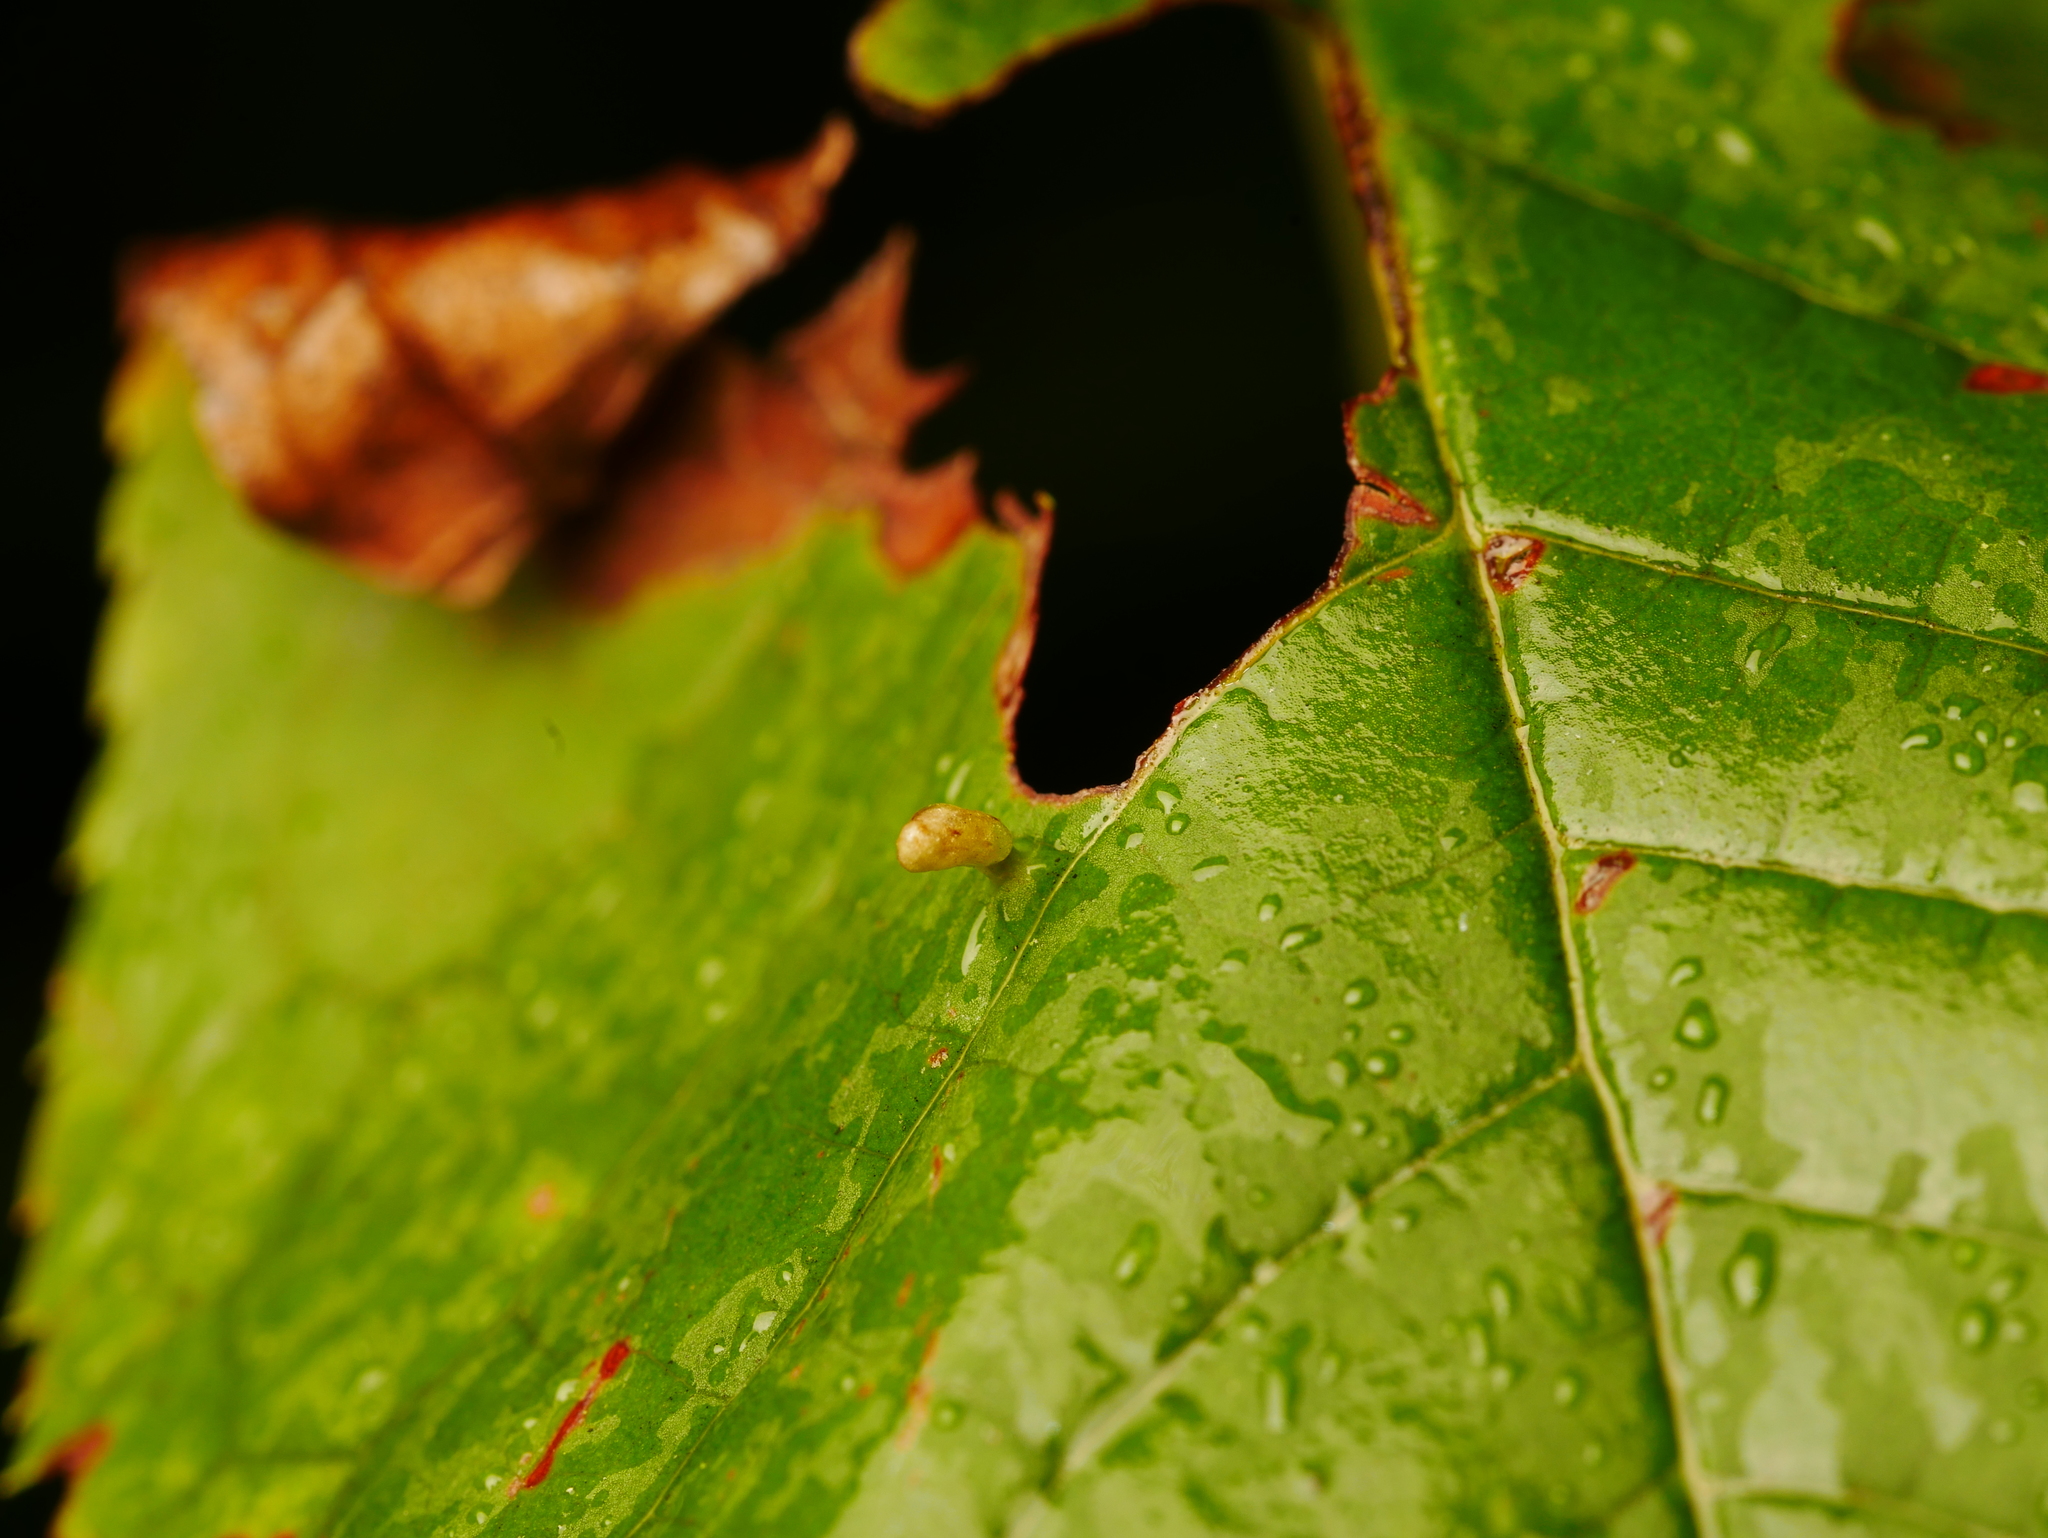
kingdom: Animalia
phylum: Arthropoda
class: Arachnida
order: Trombidiformes
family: Eriophyidae
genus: Phyllocoptes
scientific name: Phyllocoptes eupadi
